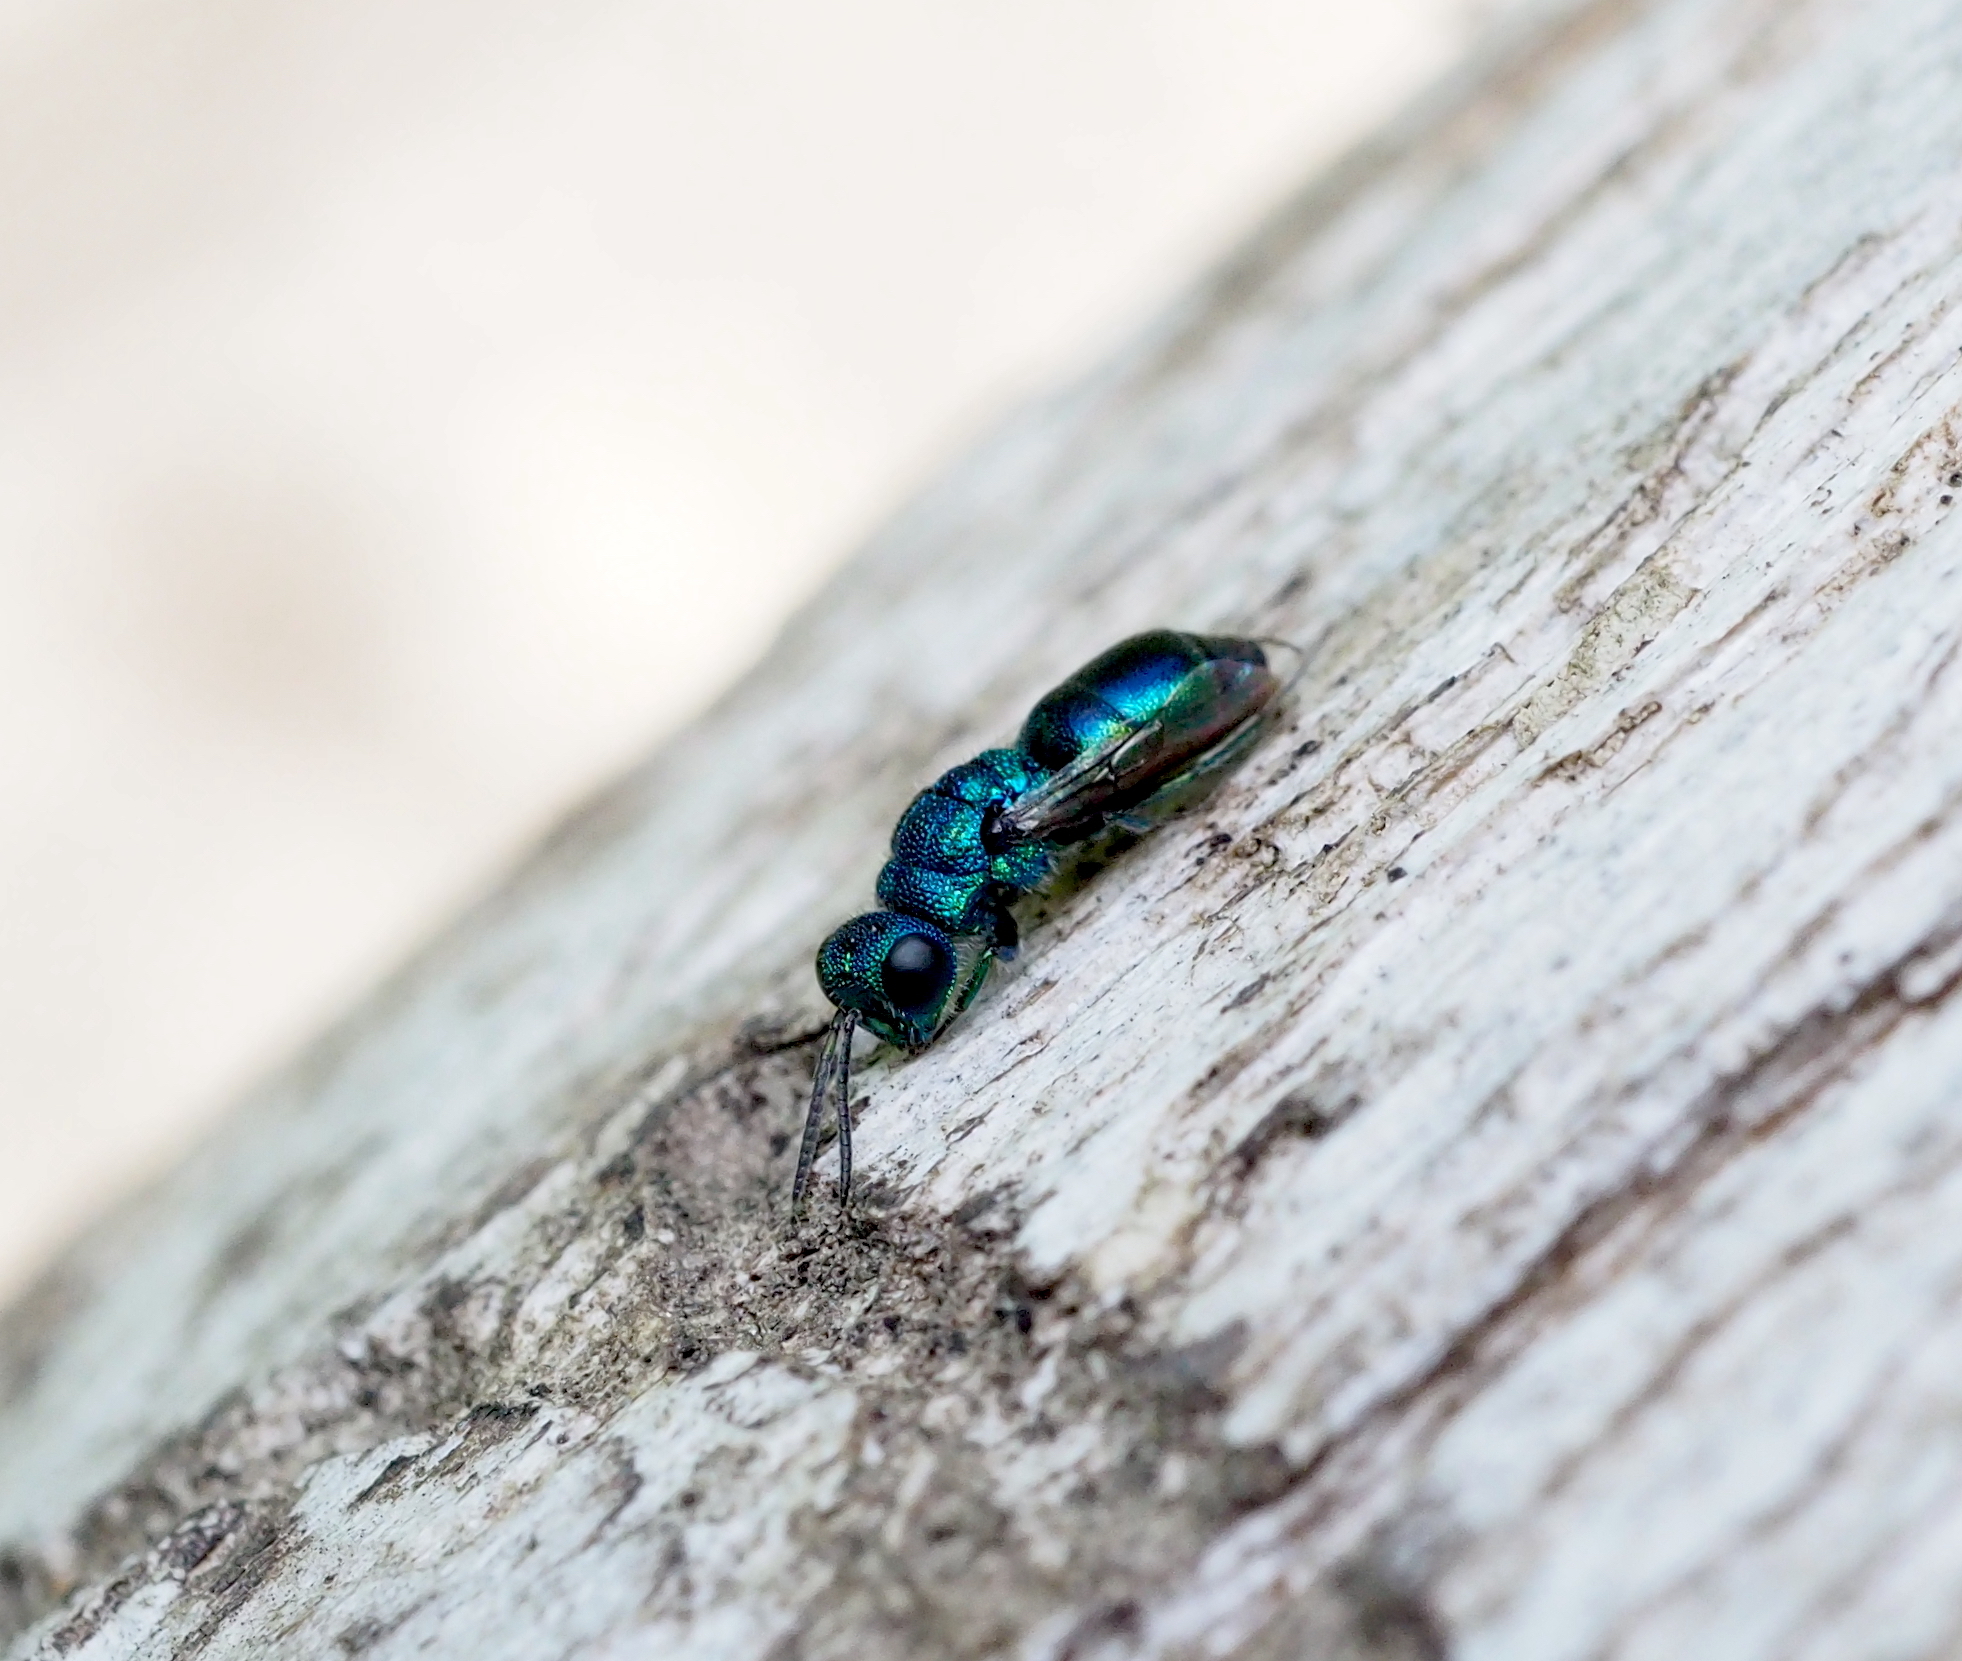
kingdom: Animalia
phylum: Arthropoda
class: Insecta
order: Hymenoptera
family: Pompilidae
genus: Pepsis
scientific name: Pepsis cyanea
